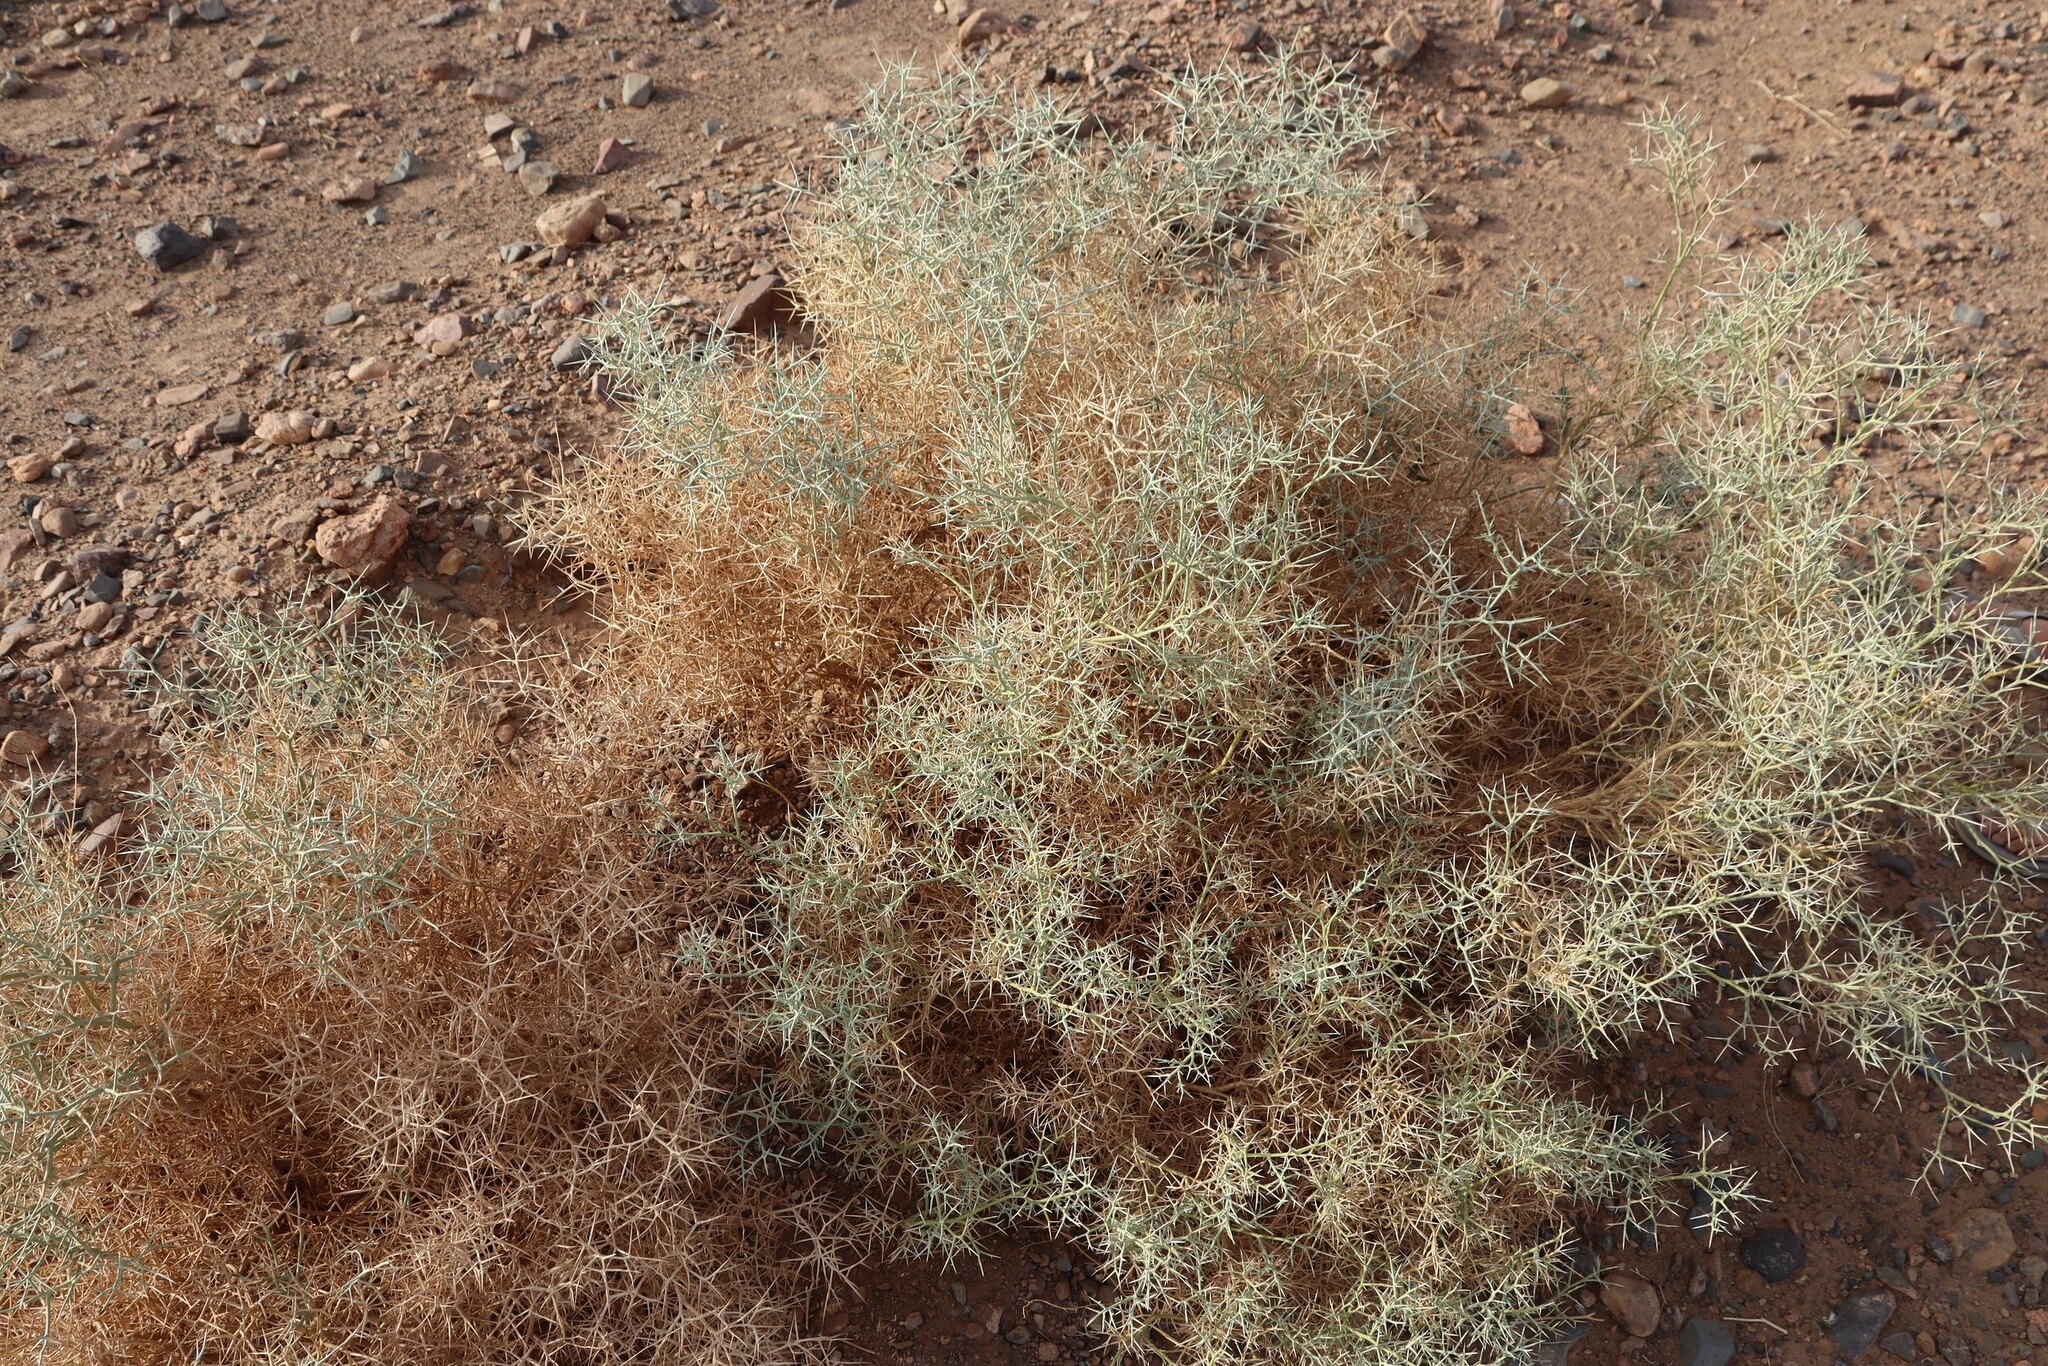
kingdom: Plantae
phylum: Tracheophyta
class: Magnoliopsida
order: Brassicales
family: Brassicaceae
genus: Zilla
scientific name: Zilla spinosa
